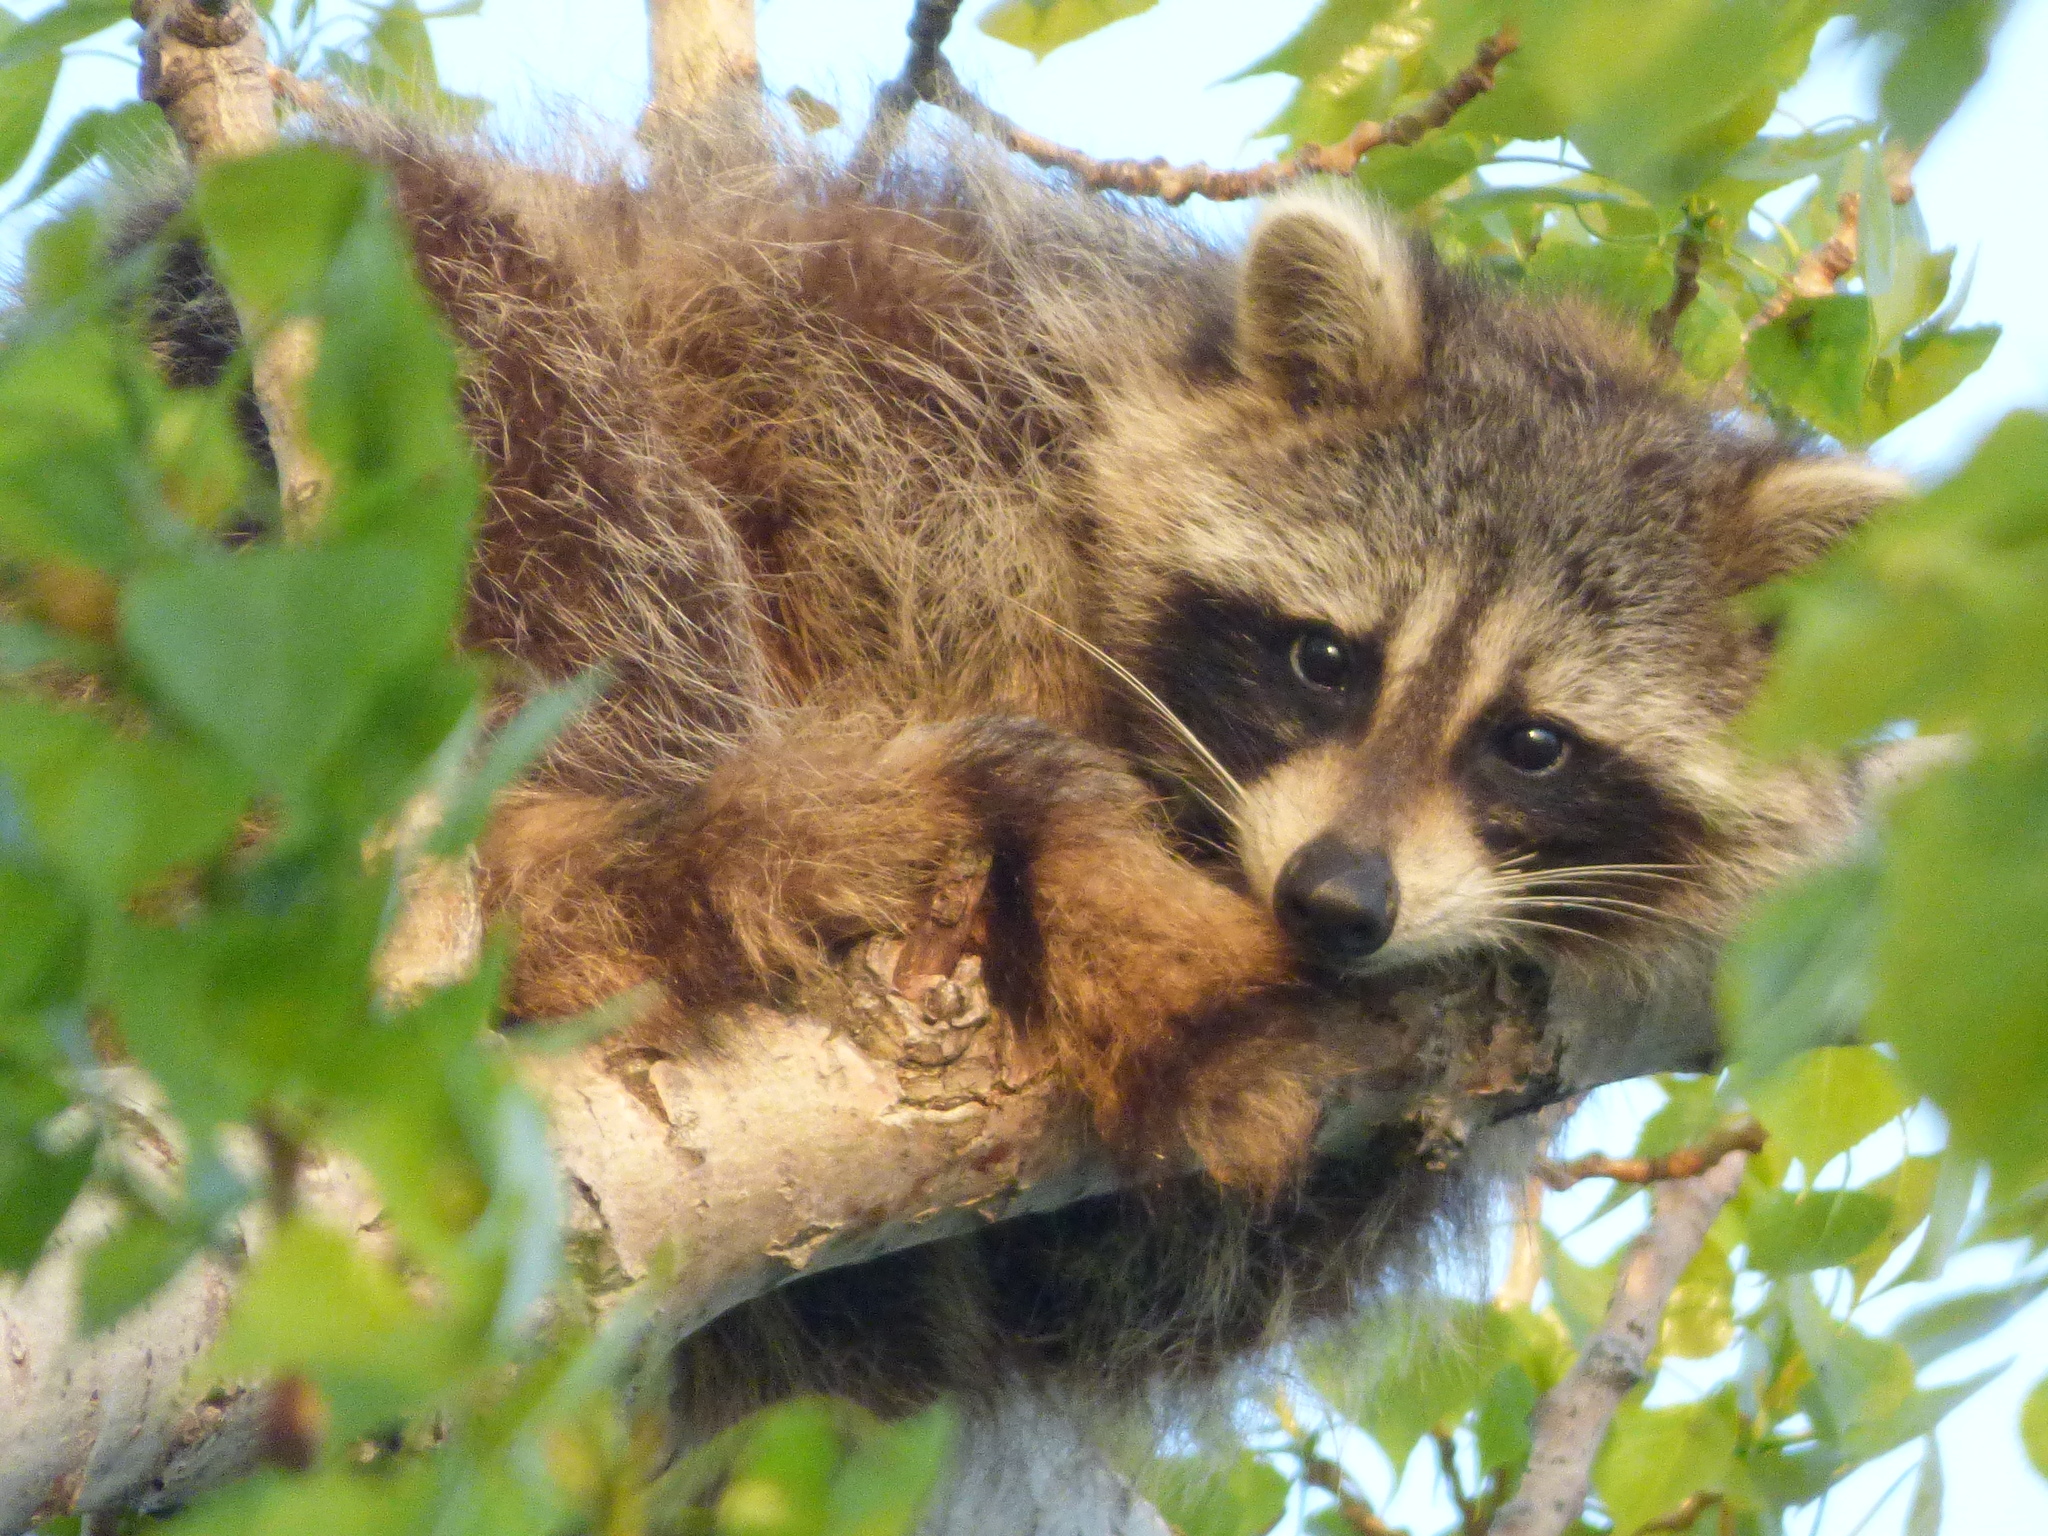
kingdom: Animalia
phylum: Chordata
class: Mammalia
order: Carnivora
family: Procyonidae
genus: Procyon
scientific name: Procyon lotor
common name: Raccoon
